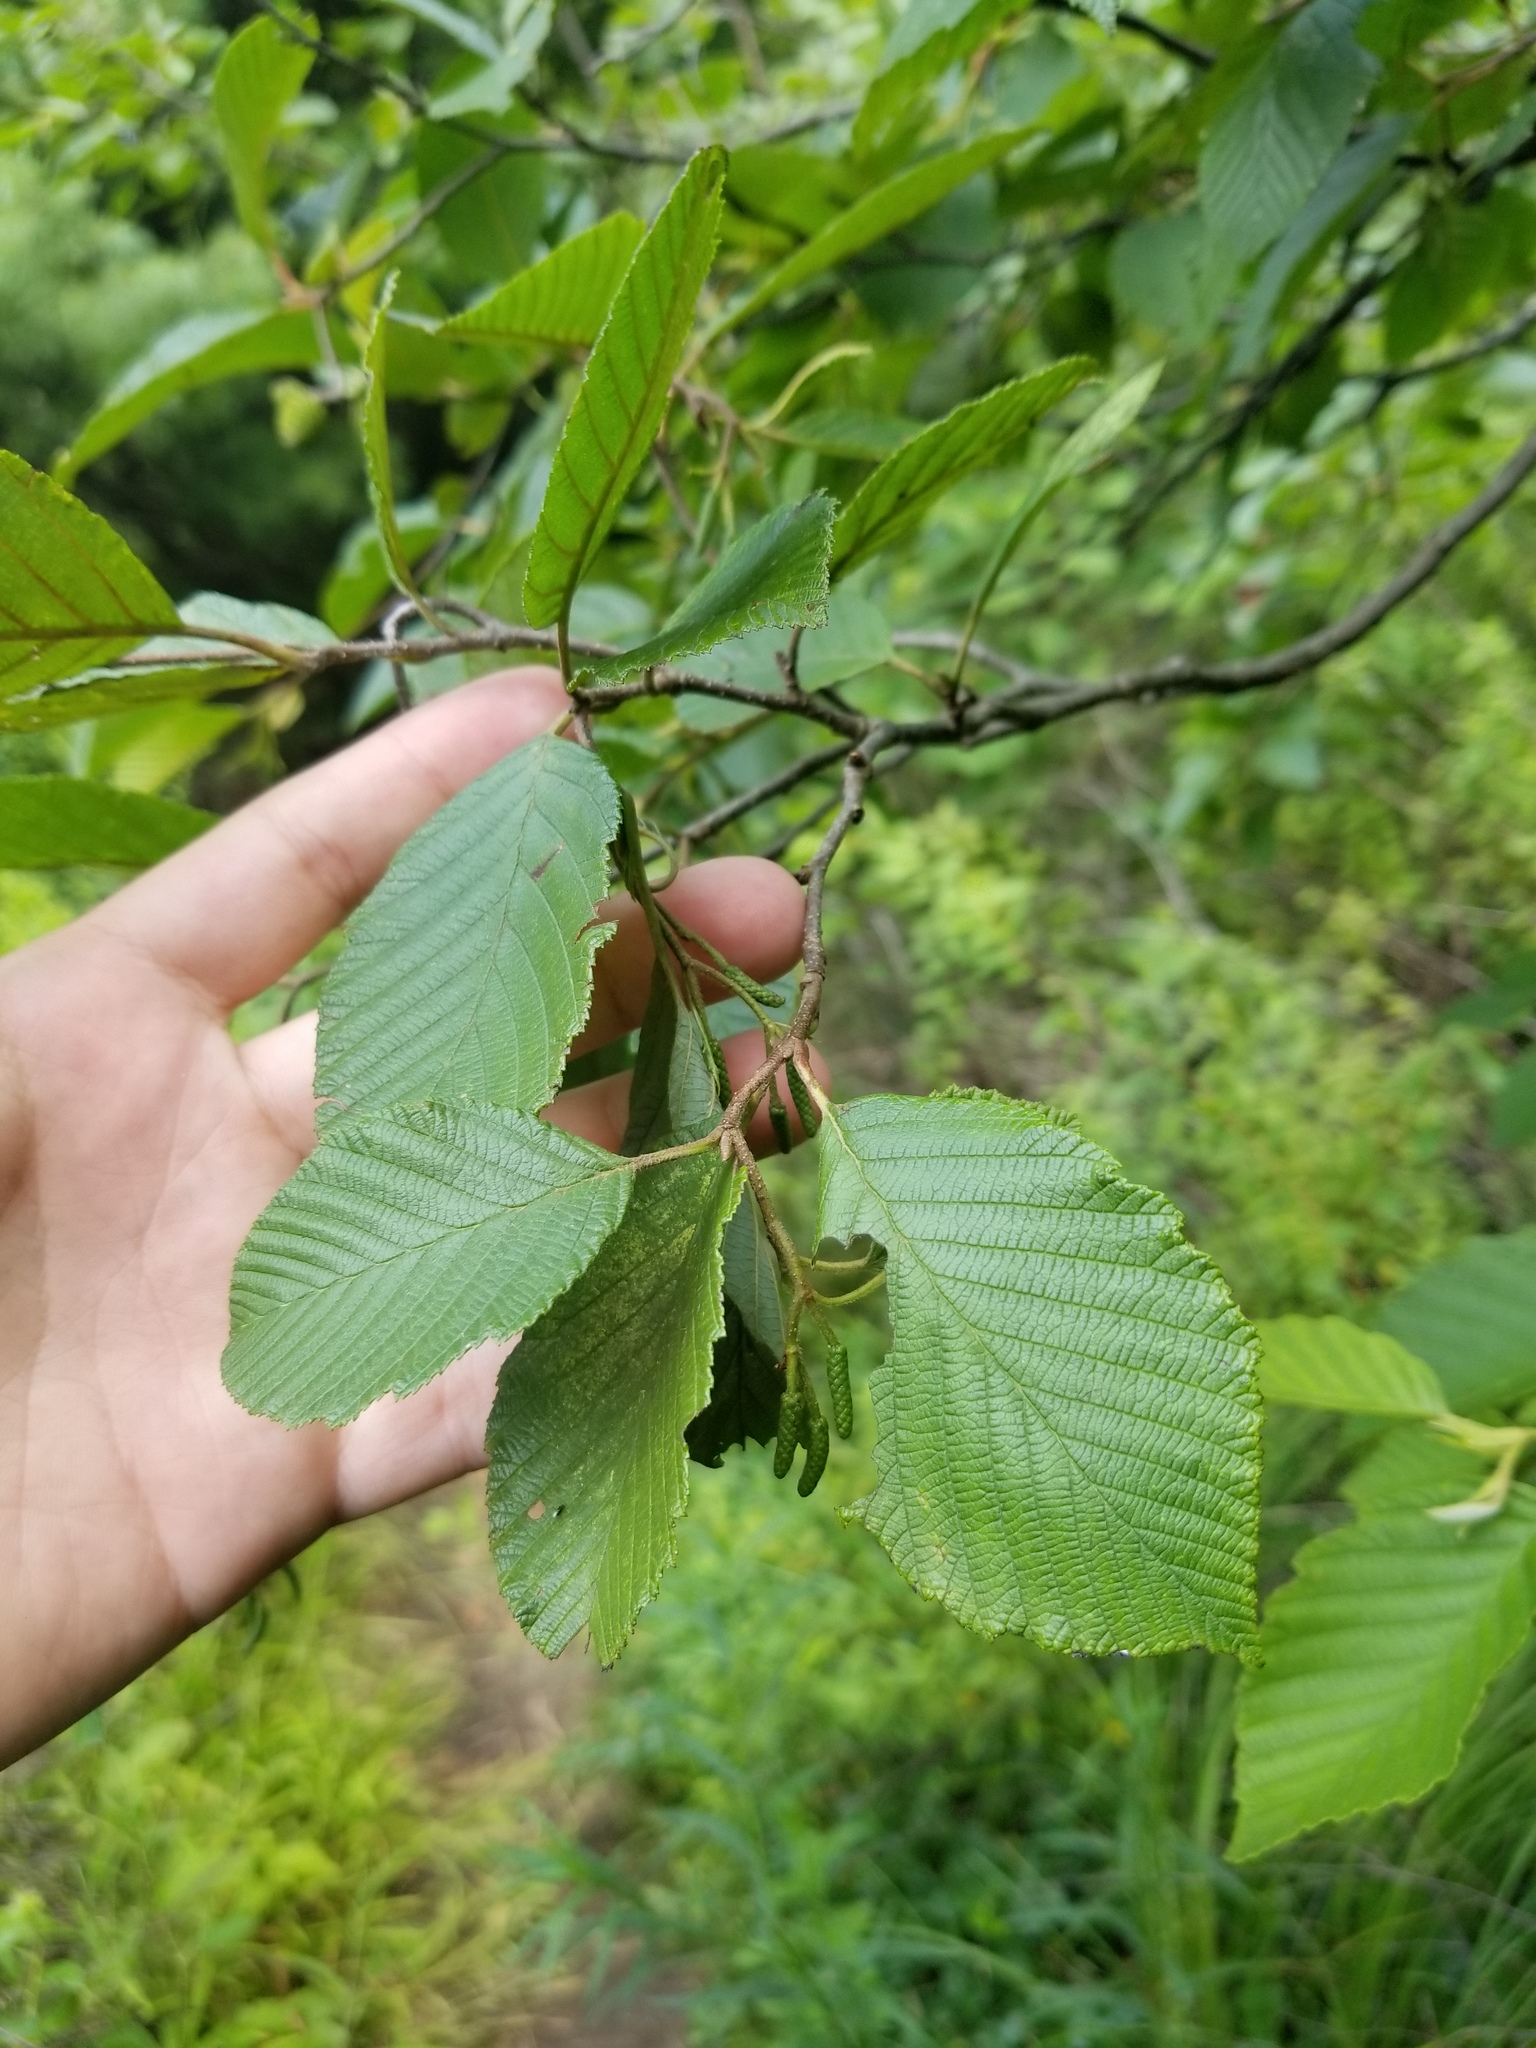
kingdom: Plantae
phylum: Tracheophyta
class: Magnoliopsida
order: Fagales
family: Betulaceae
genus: Alnus
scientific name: Alnus incana
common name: Grey alder
